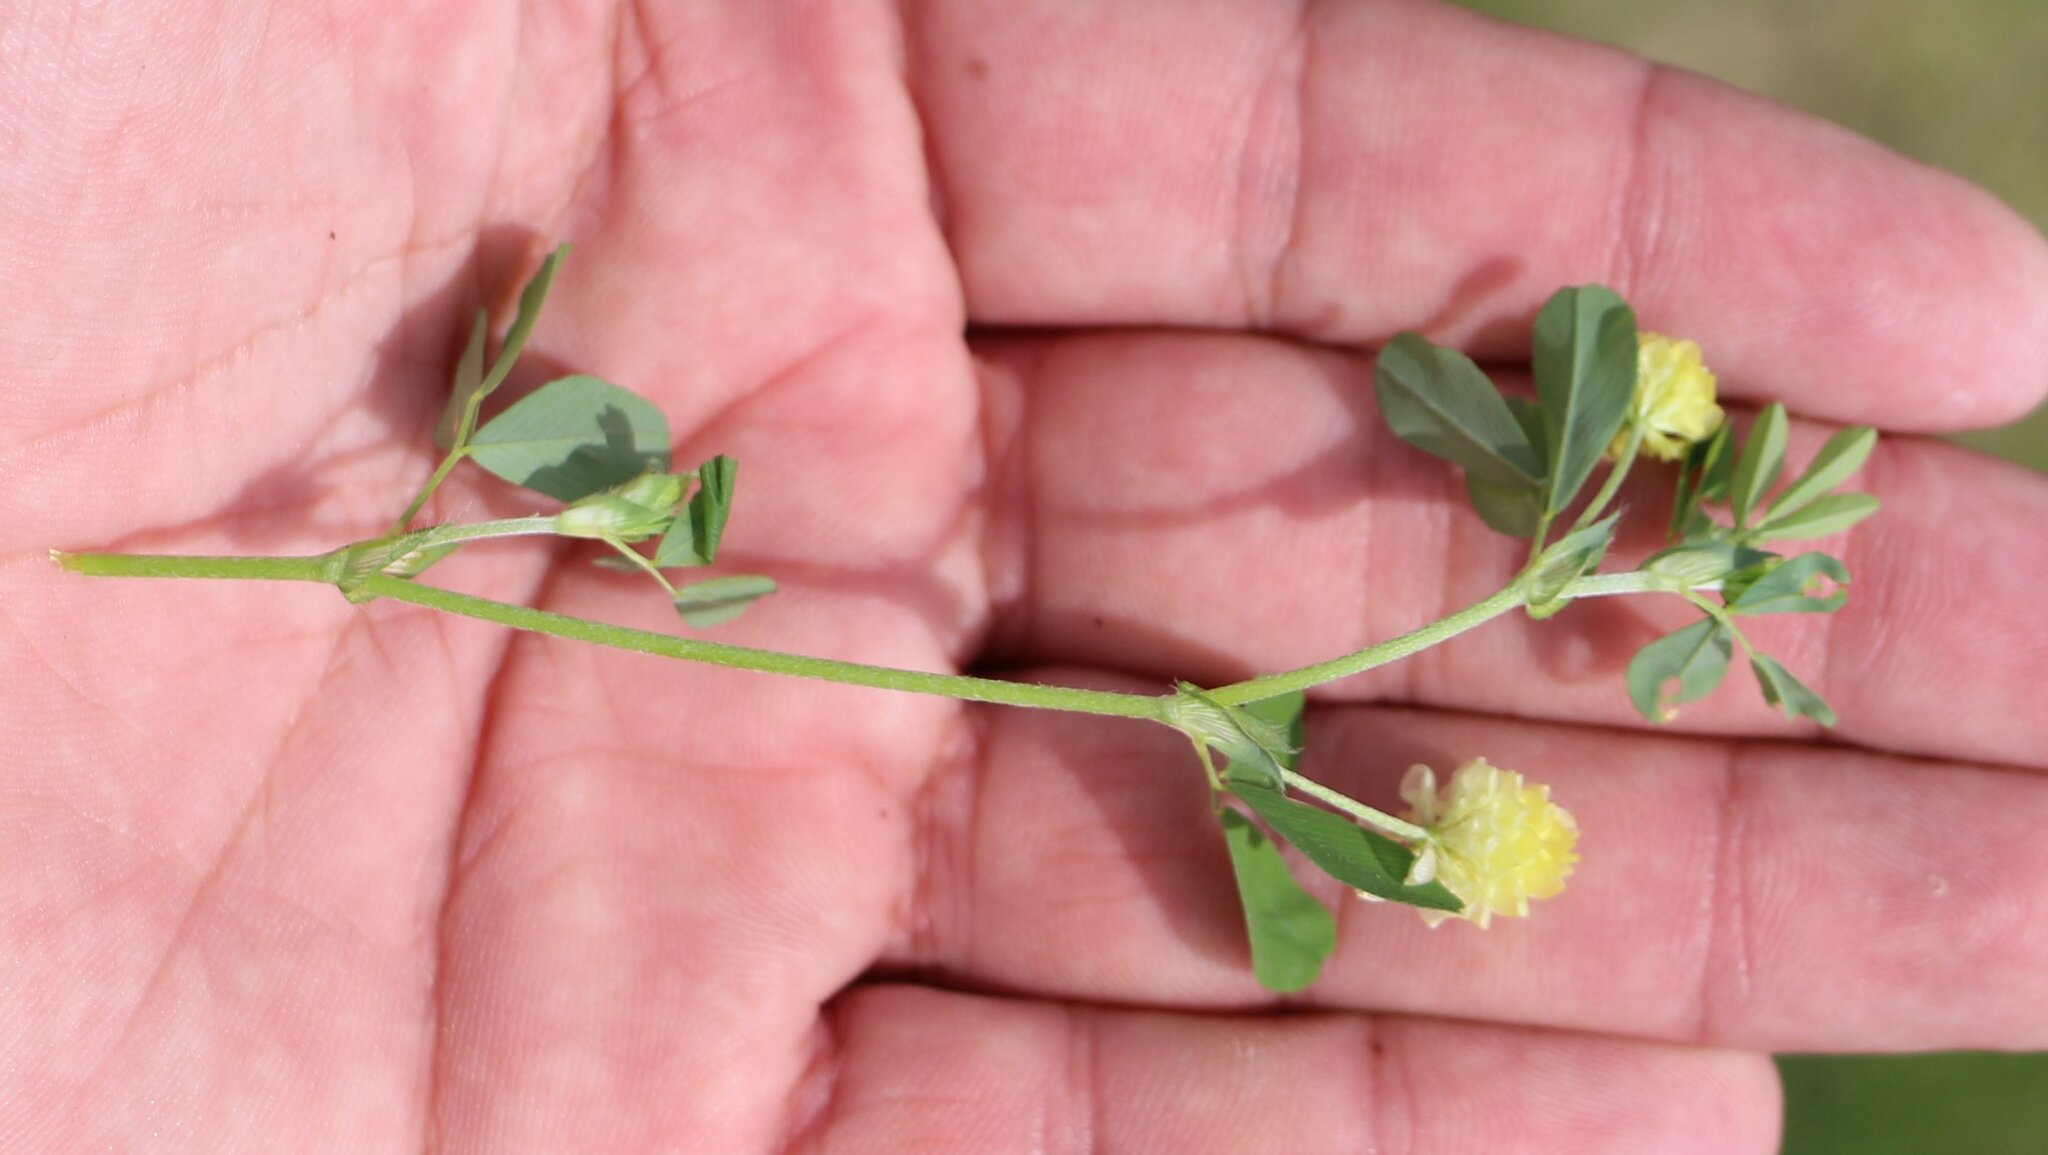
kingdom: Plantae
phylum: Tracheophyta
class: Magnoliopsida
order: Fabales
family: Fabaceae
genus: Trifolium
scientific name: Trifolium campestre
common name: Field clover
